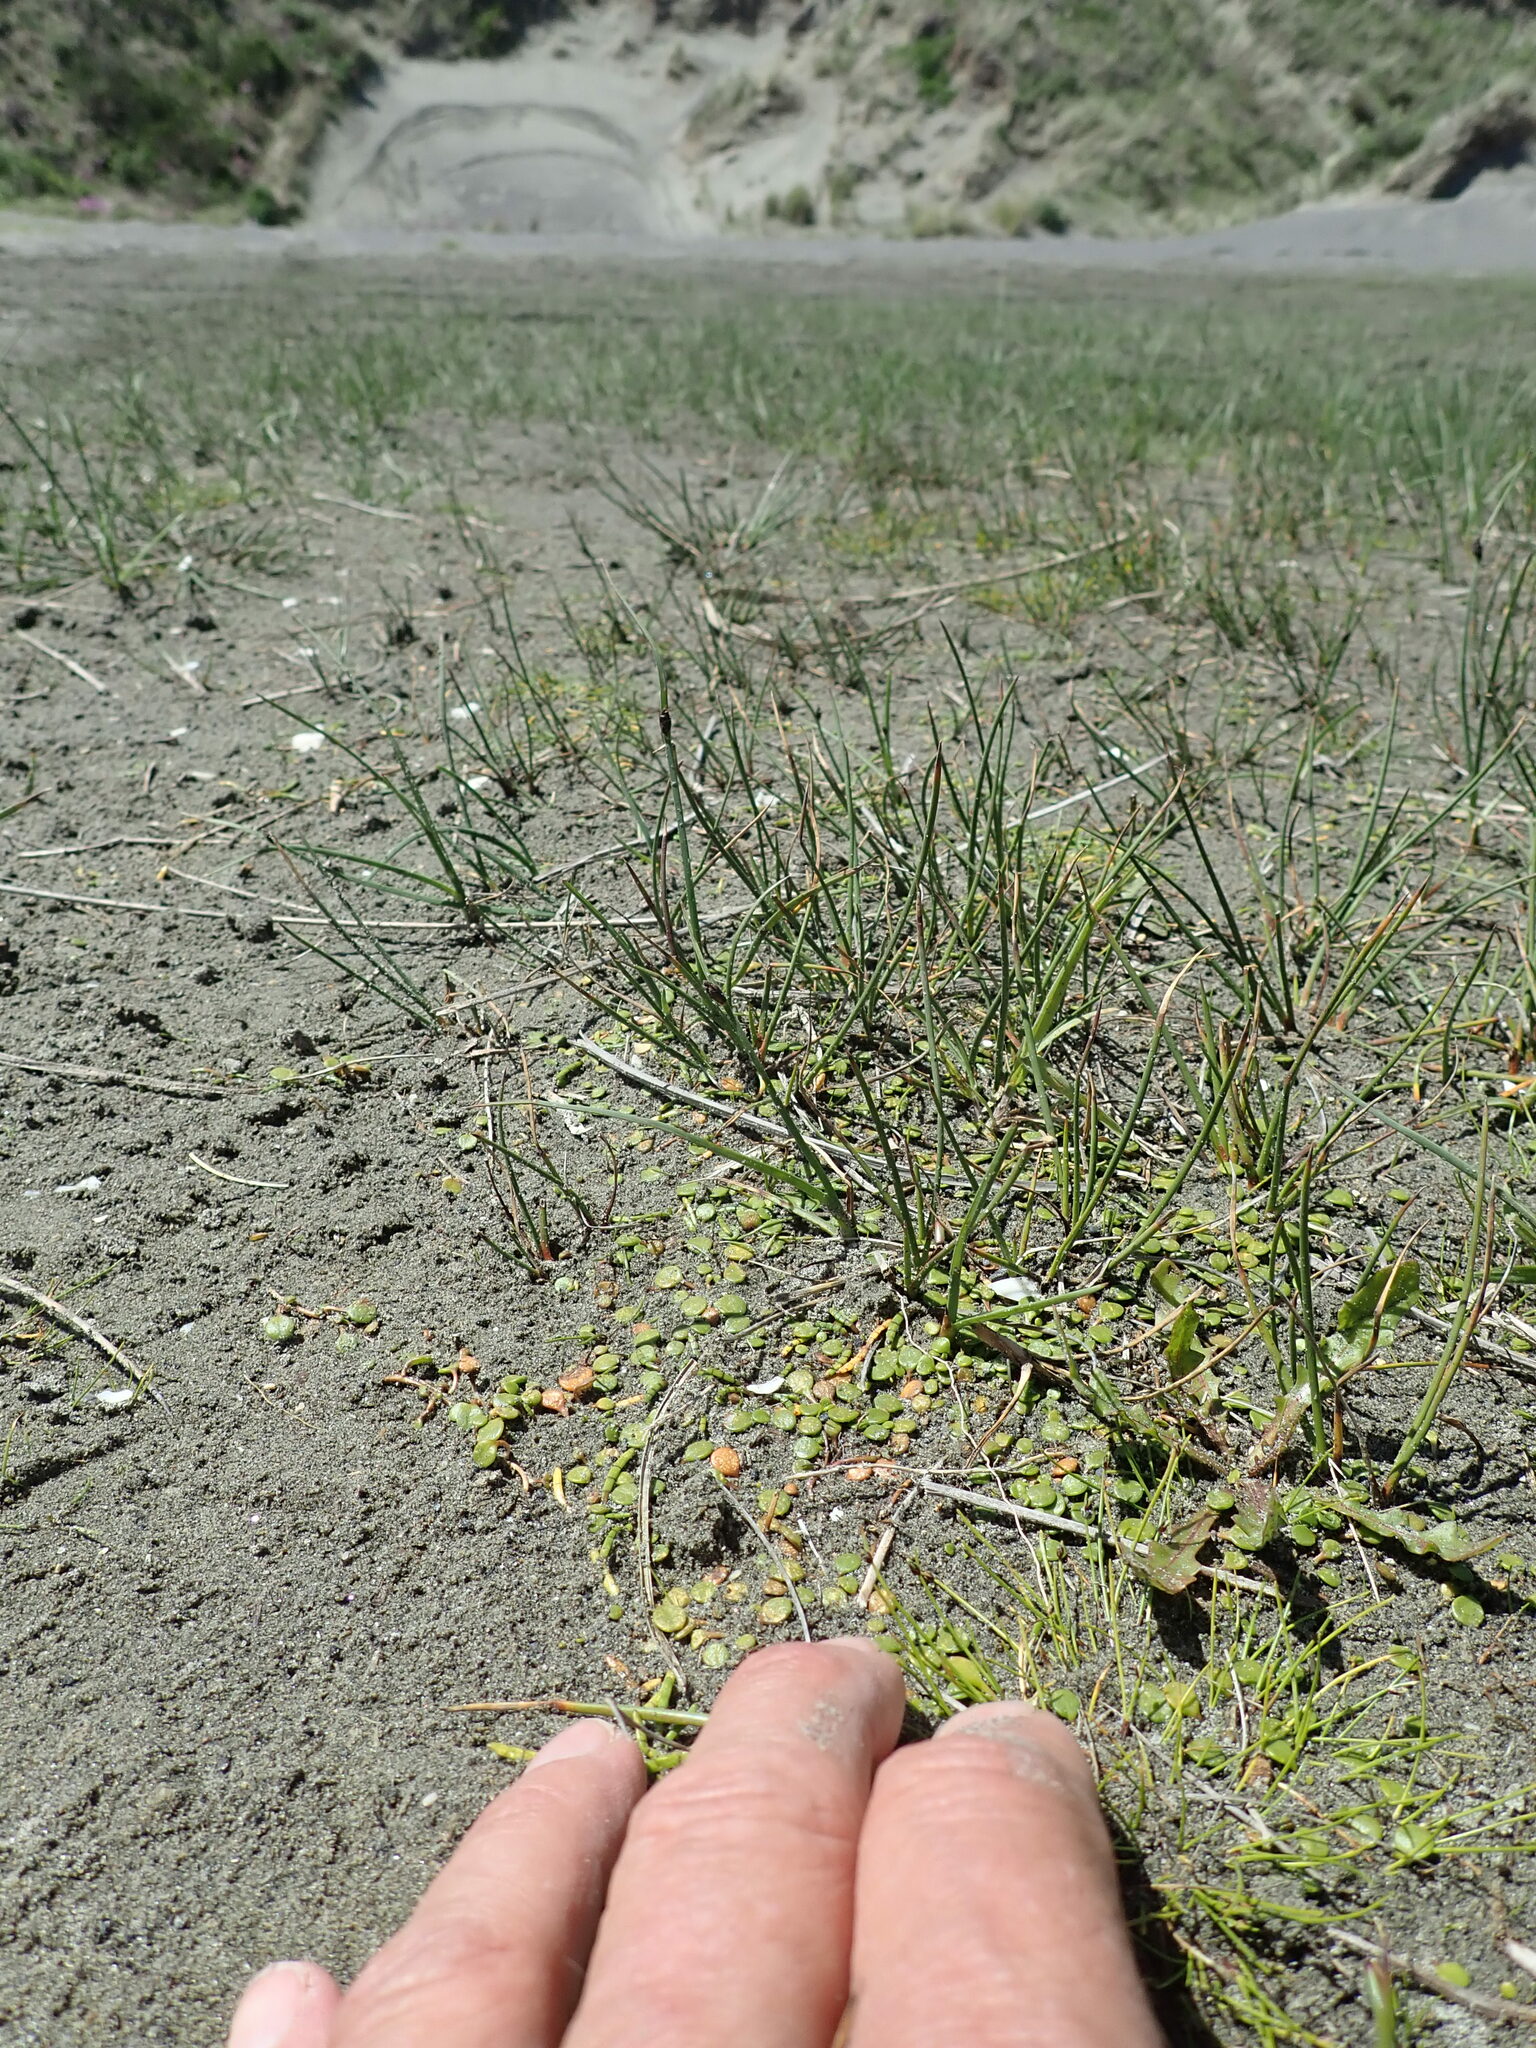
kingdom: Plantae
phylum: Tracheophyta
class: Magnoliopsida
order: Asterales
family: Goodeniaceae
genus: Goodenia
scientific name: Goodenia heenanii
